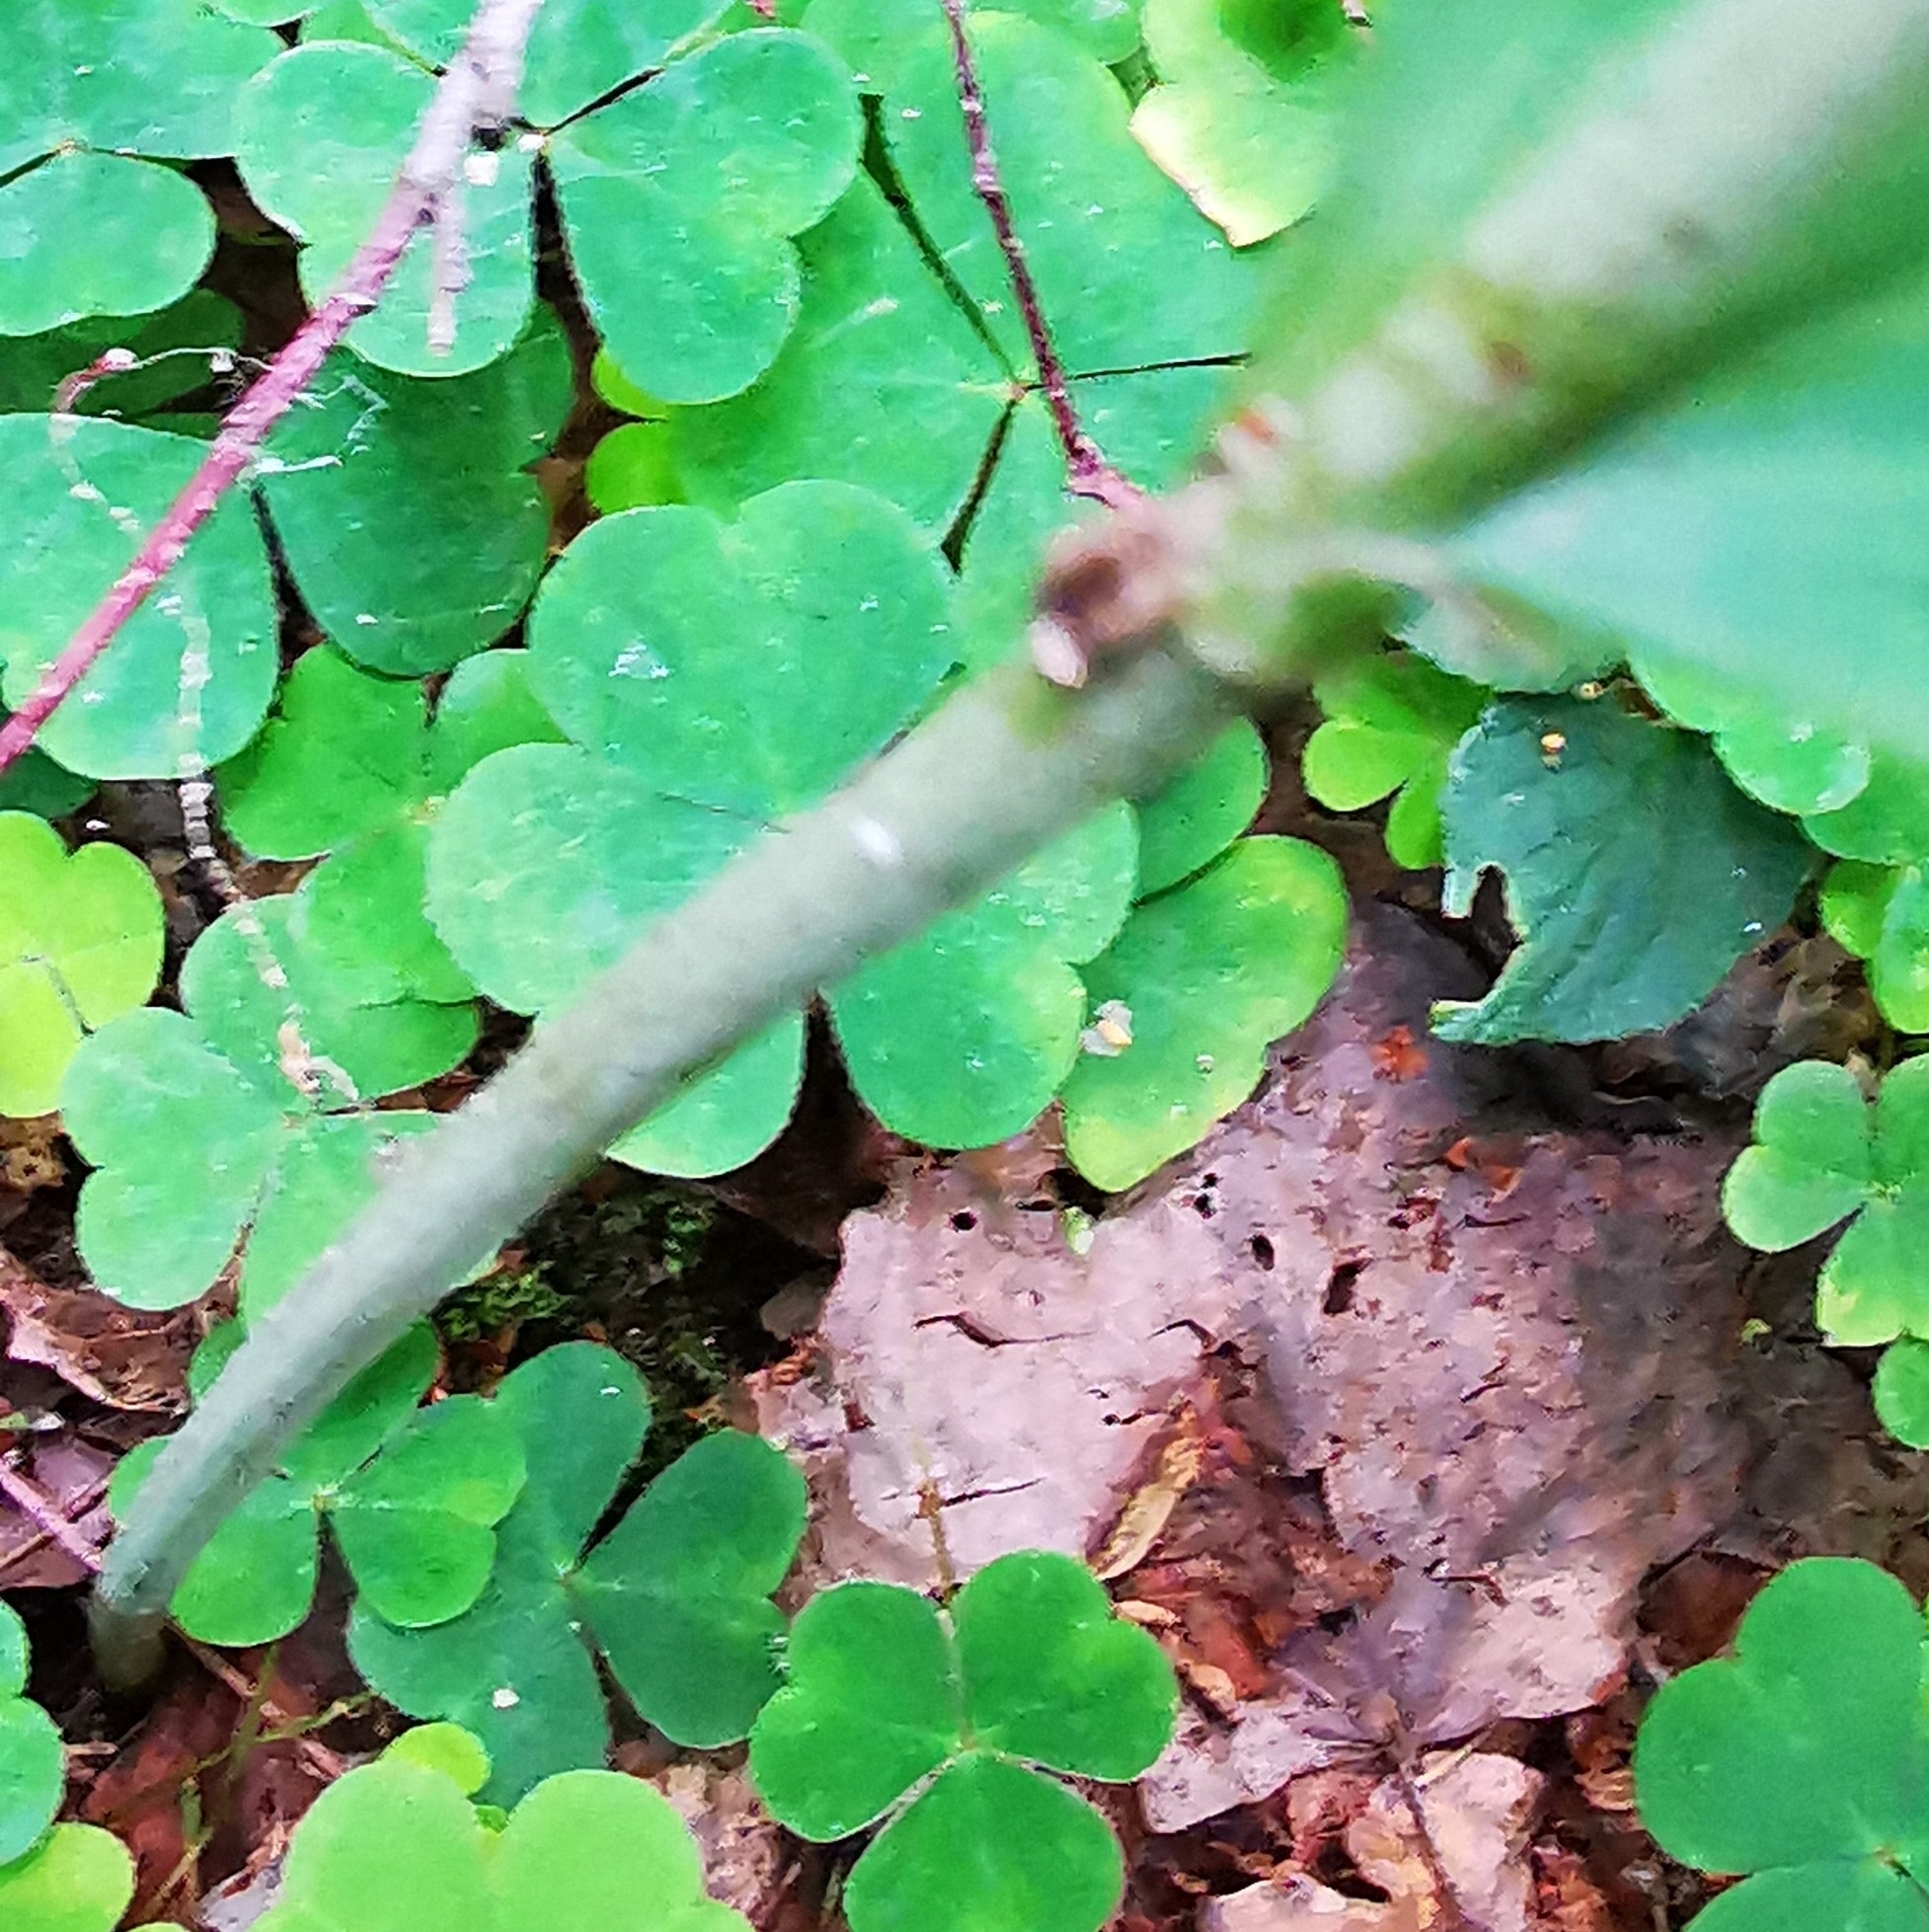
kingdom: Plantae
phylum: Tracheophyta
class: Liliopsida
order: Asparagales
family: Asparagaceae
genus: Polygonatum
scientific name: Polygonatum multiflorum
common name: Solomon's-seal
